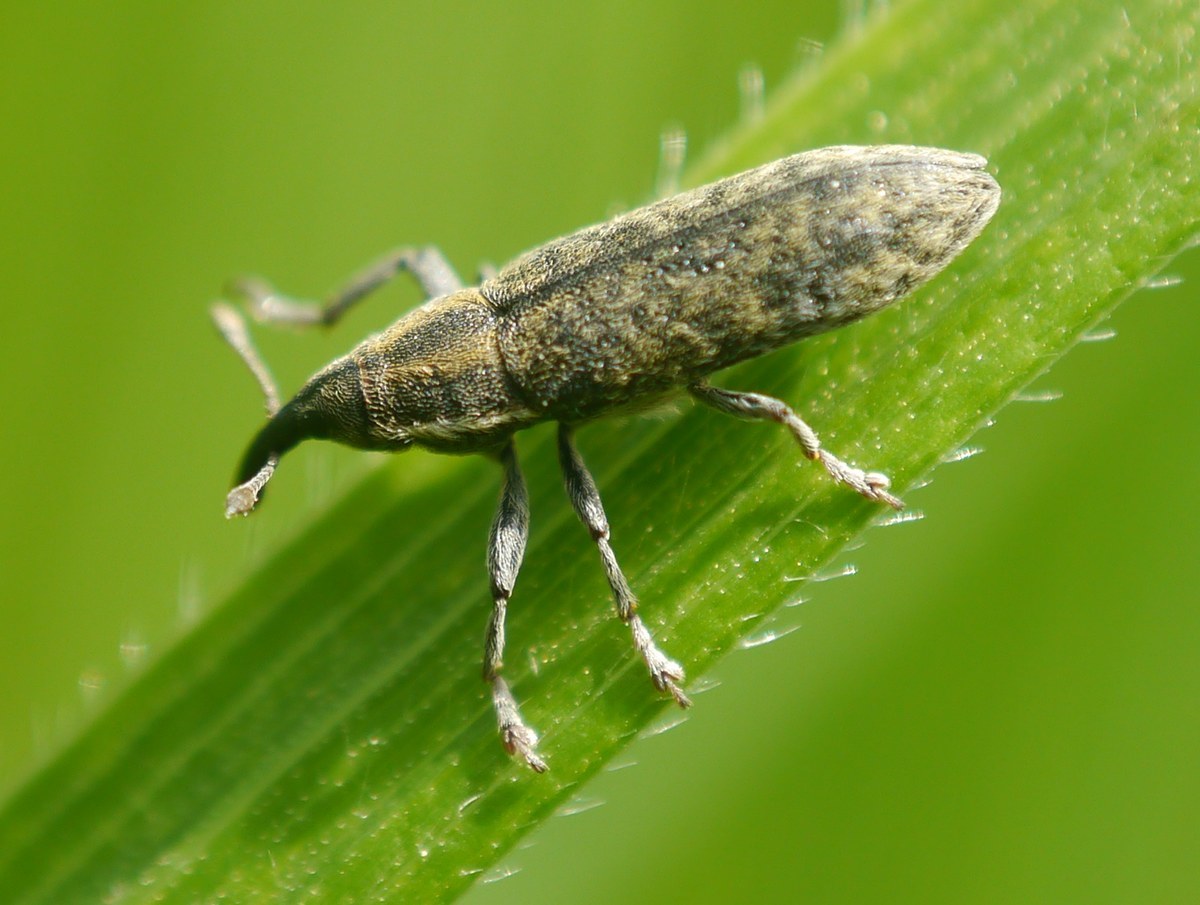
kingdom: Animalia
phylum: Arthropoda
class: Insecta
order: Coleoptera
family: Curculionidae
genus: Lixus
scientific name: Lixus filiformis
